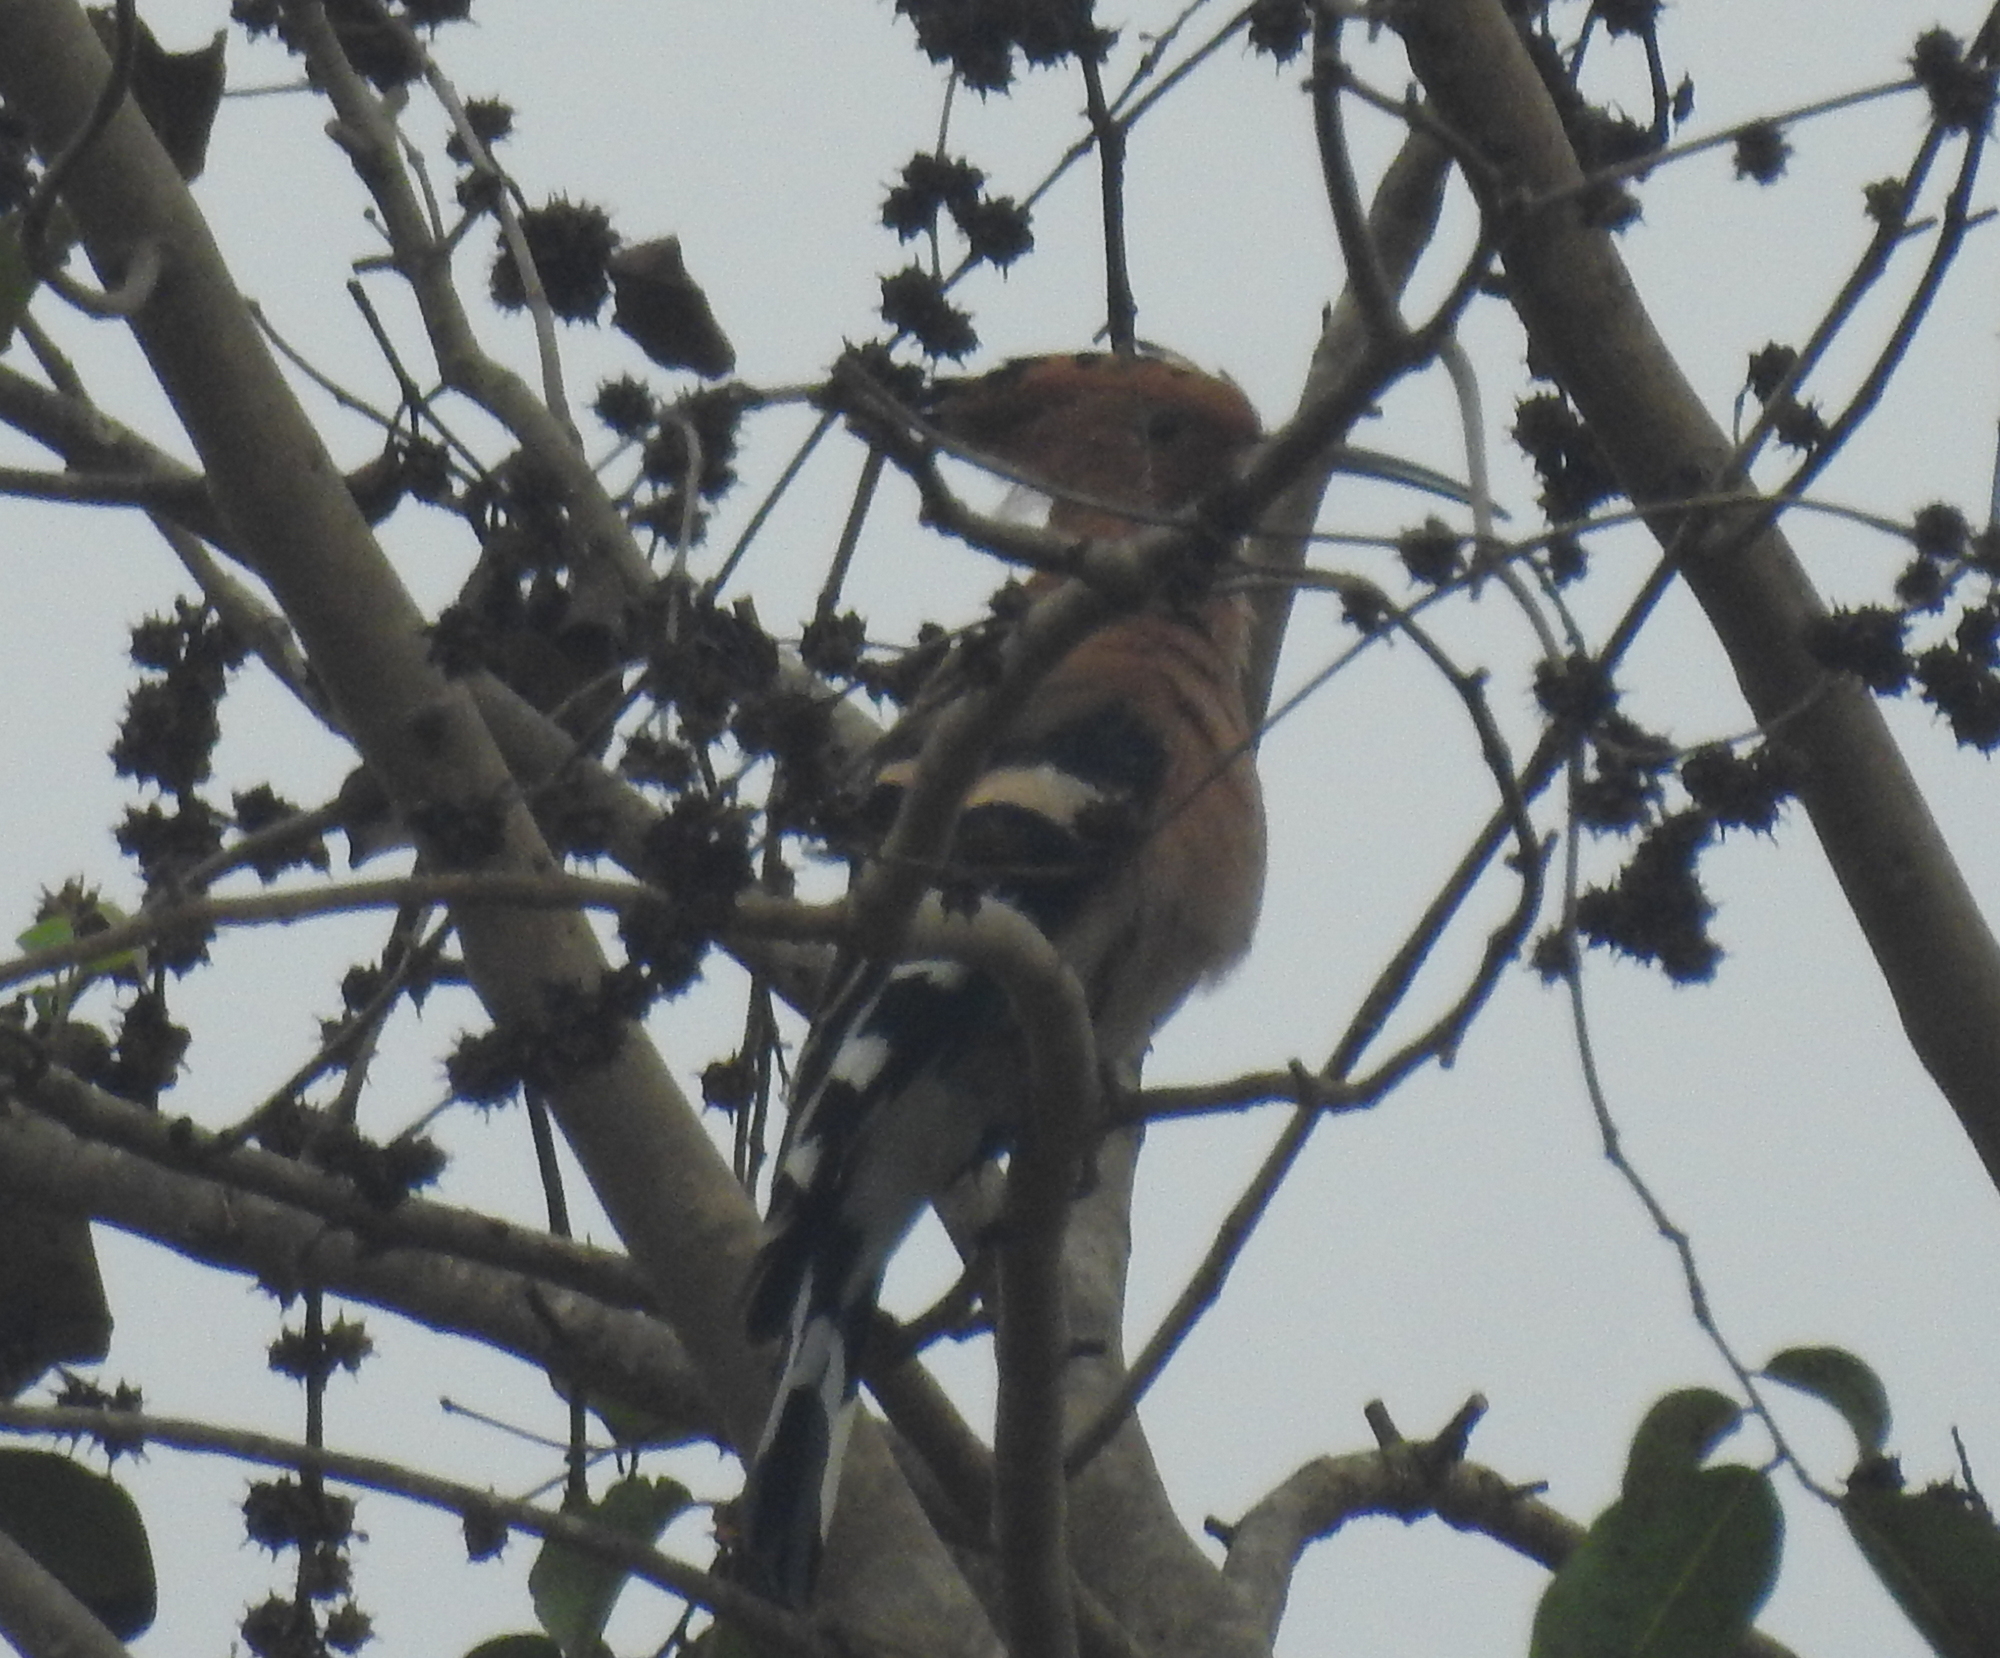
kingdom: Animalia
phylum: Chordata
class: Aves
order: Bucerotiformes
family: Upupidae
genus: Upupa
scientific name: Upupa epops
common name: Eurasian hoopoe
